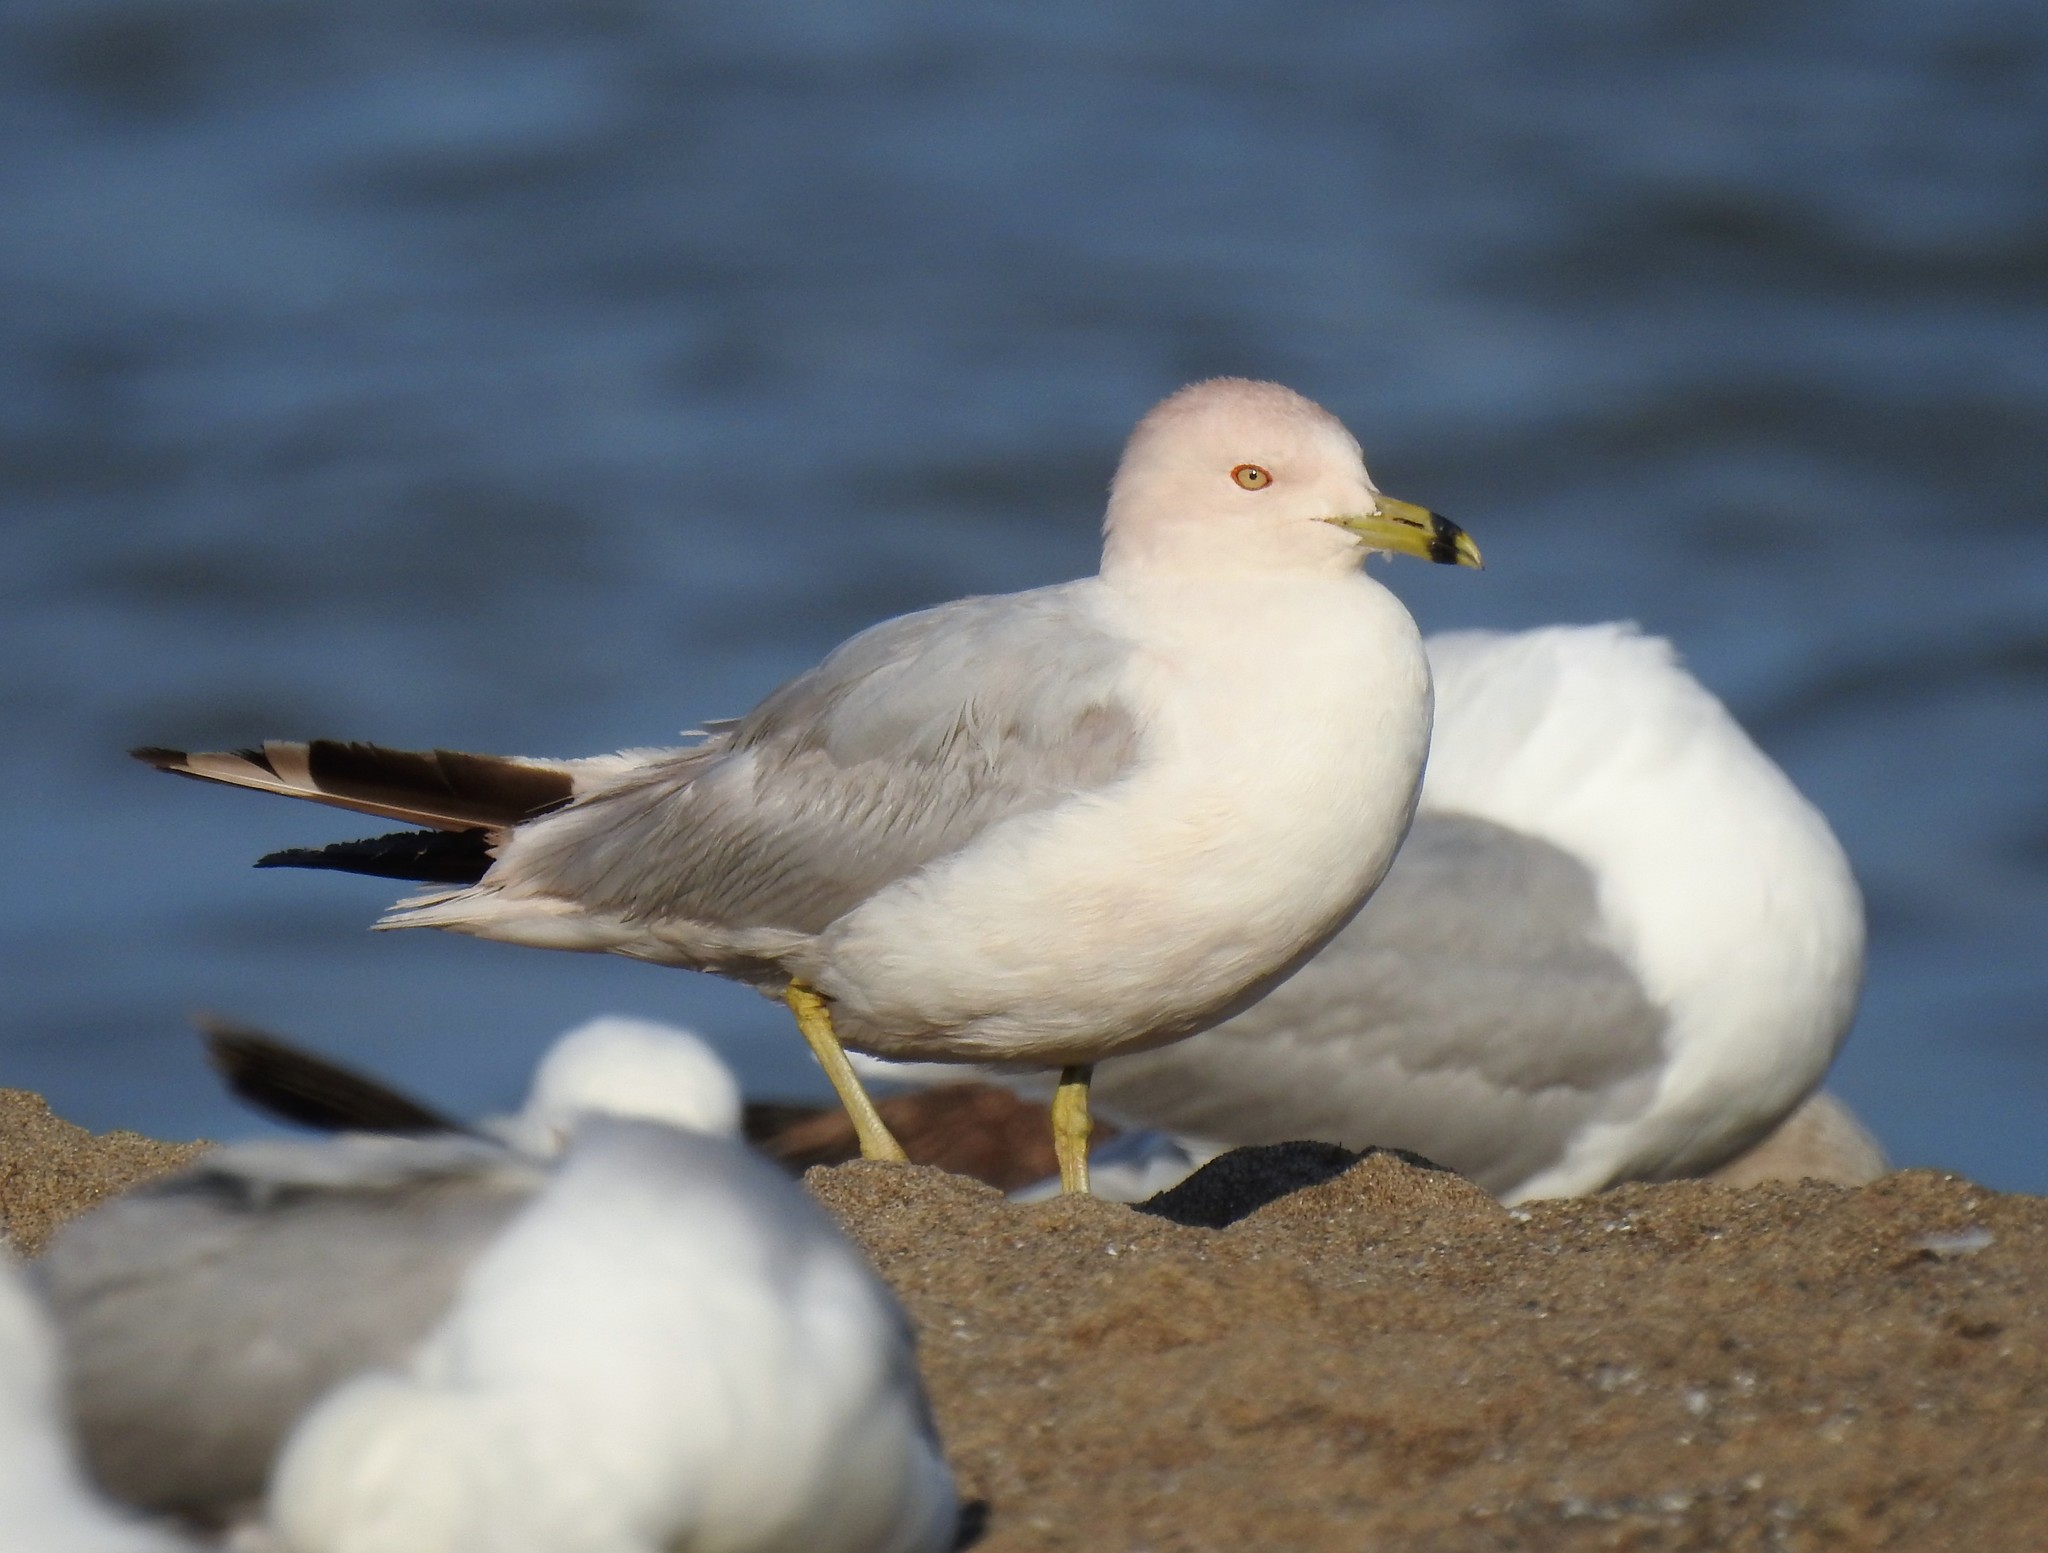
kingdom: Animalia
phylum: Chordata
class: Aves
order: Charadriiformes
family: Laridae
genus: Larus
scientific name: Larus delawarensis
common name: Ring-billed gull
